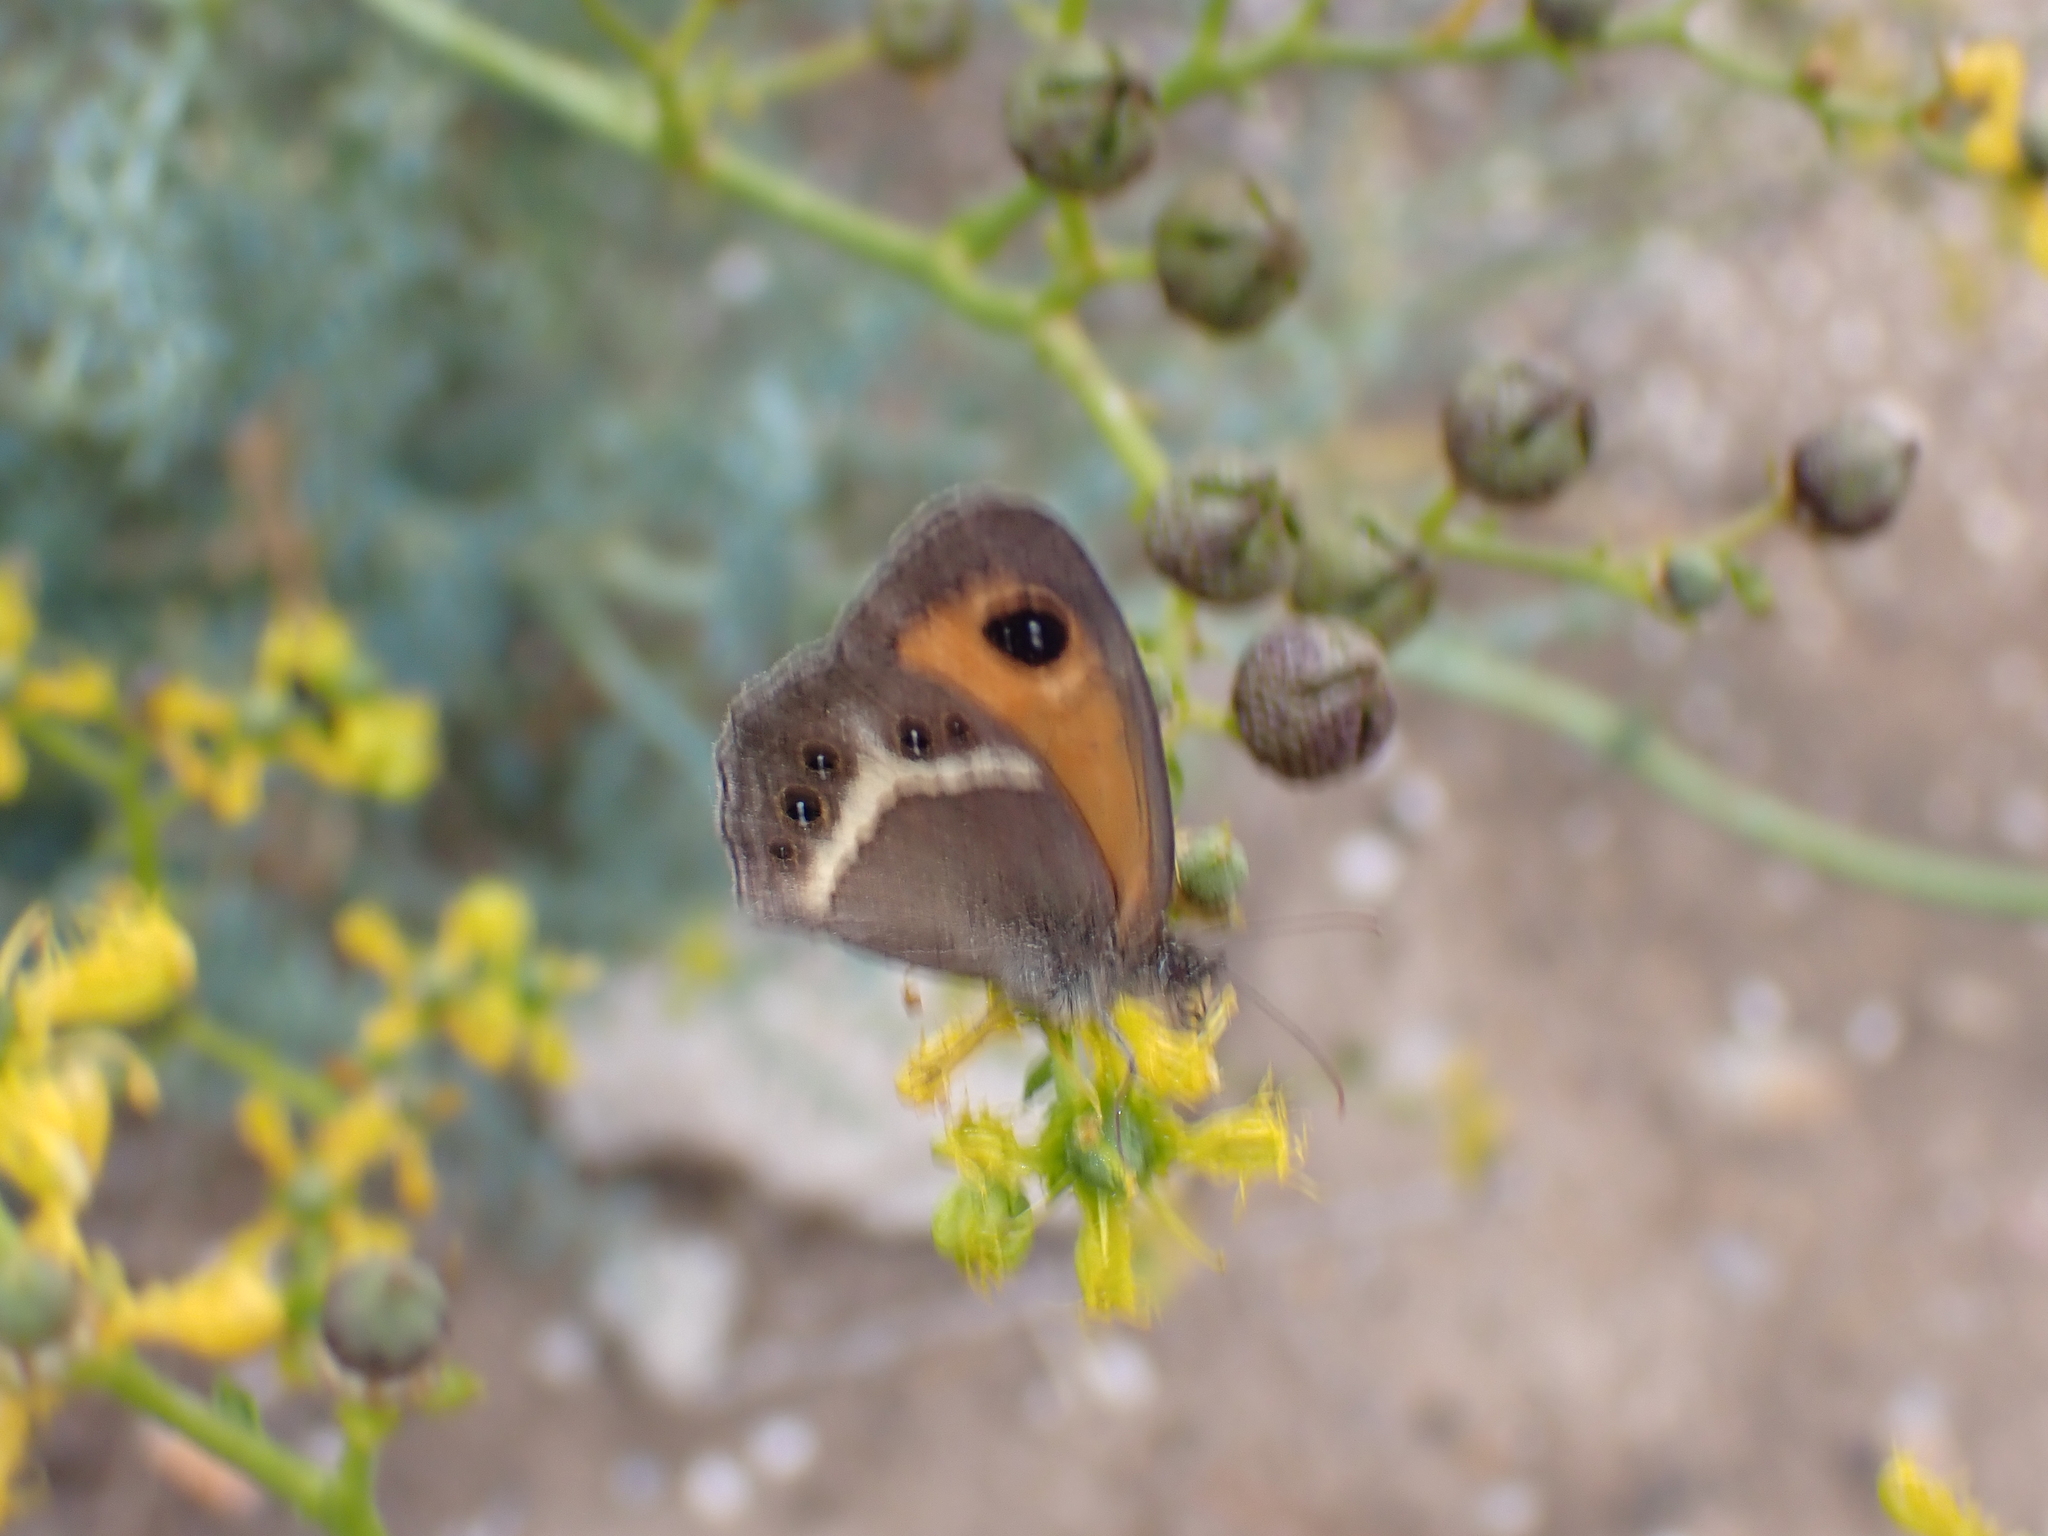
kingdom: Animalia
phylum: Arthropoda
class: Insecta
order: Lepidoptera
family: Nymphalidae
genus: Pyronia
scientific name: Pyronia bathseba
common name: Spanish gatekeeper
